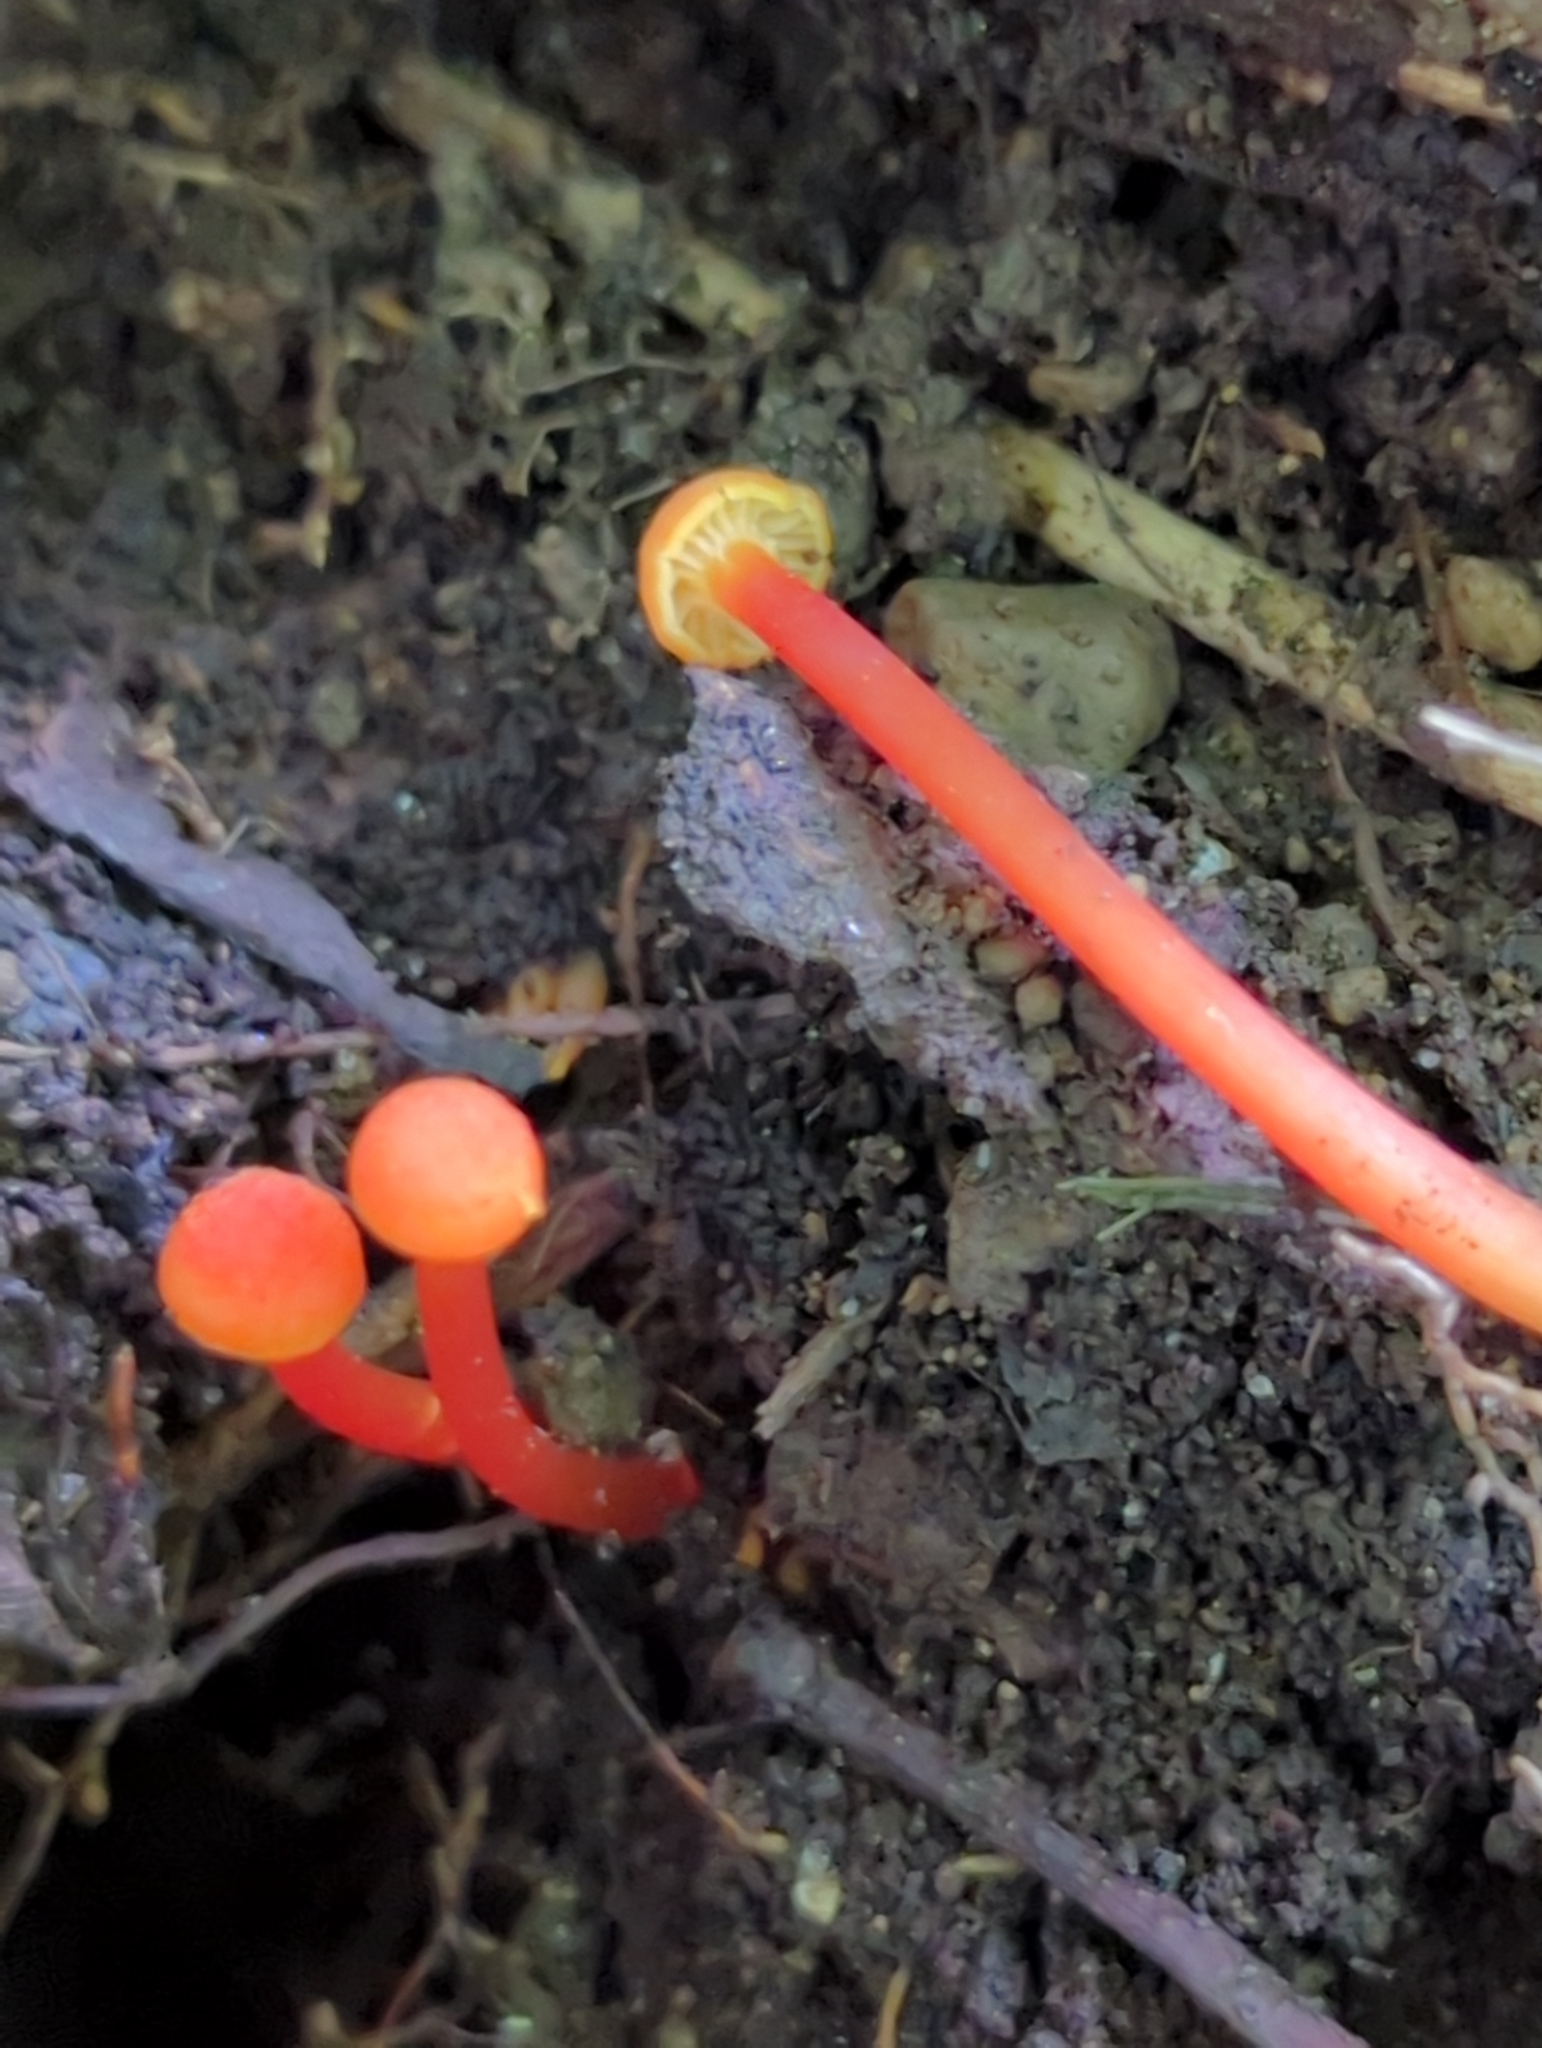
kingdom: Fungi
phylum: Basidiomycota
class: Agaricomycetes
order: Agaricales
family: Hygrophoraceae
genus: Hygrocybe
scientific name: Hygrocybe cantharellus
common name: Goblet waxcap
